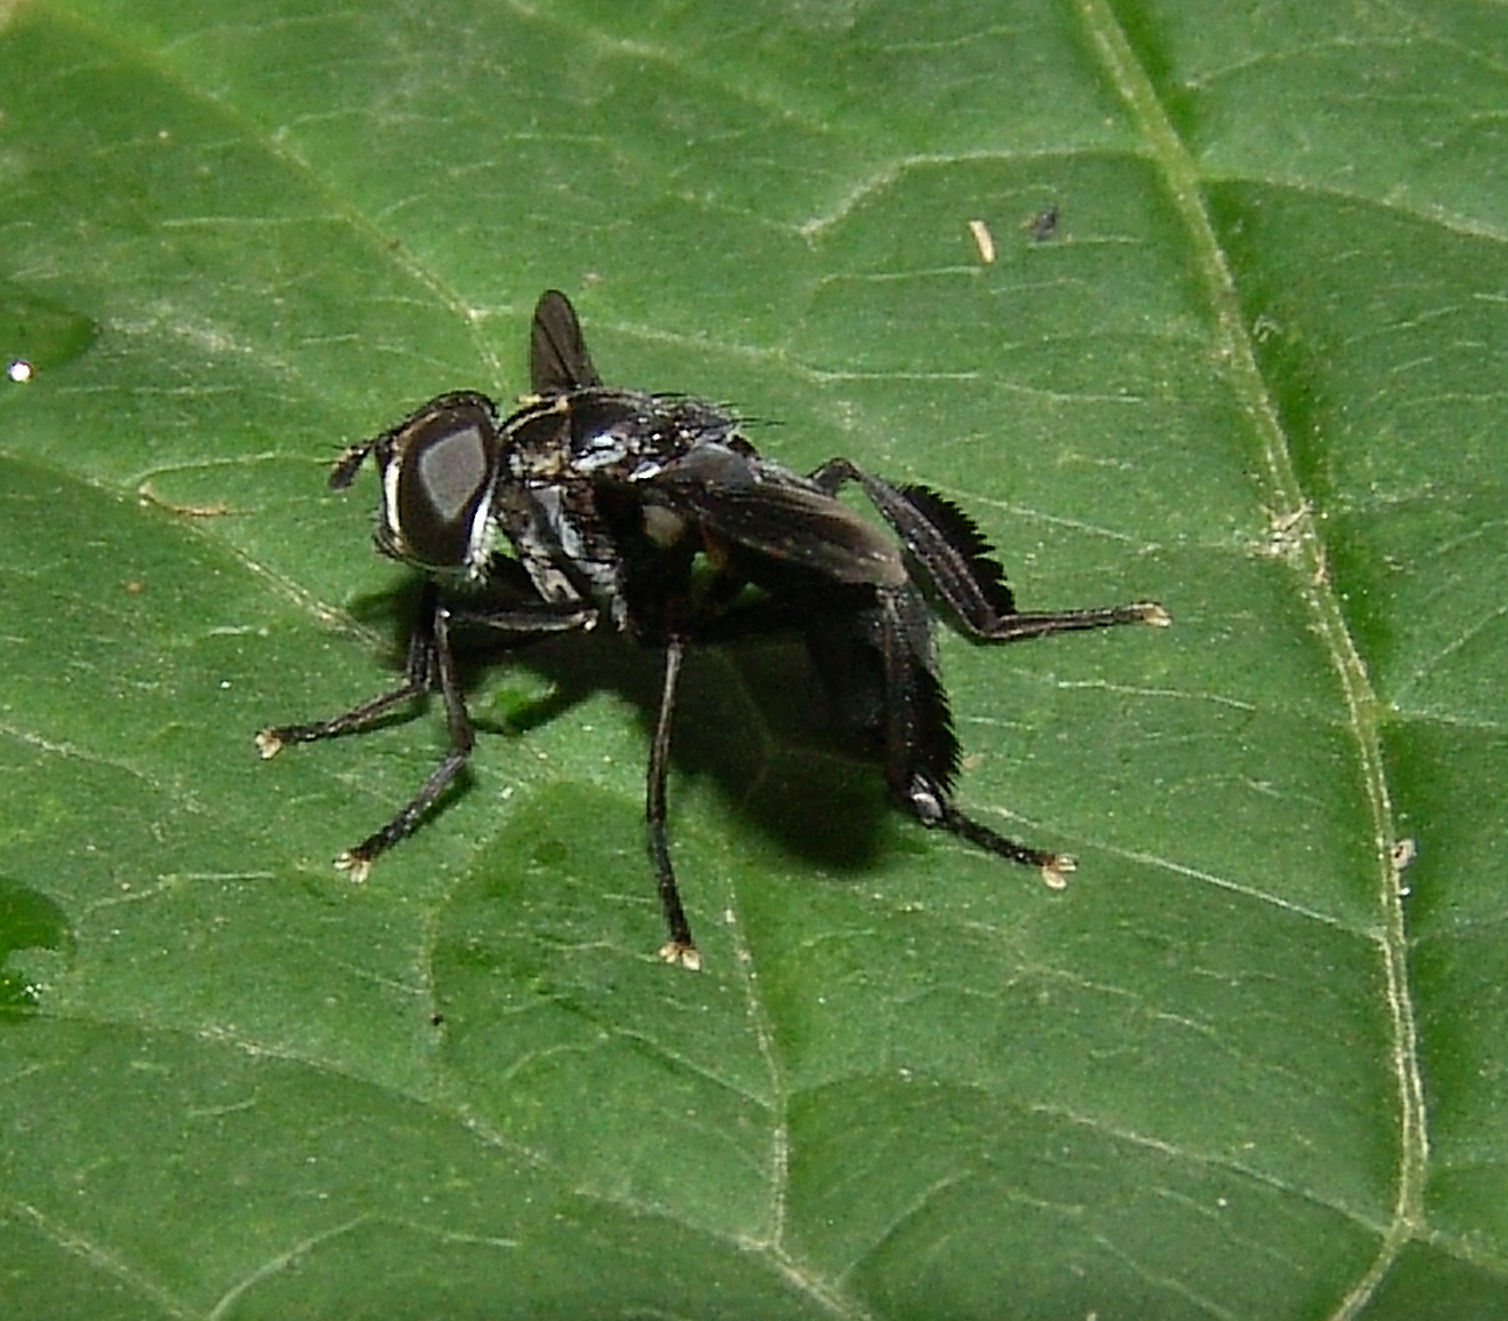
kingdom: Animalia
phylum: Arthropoda
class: Insecta
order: Diptera
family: Tachinidae
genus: Trichopoda
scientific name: Trichopoda lanipes
